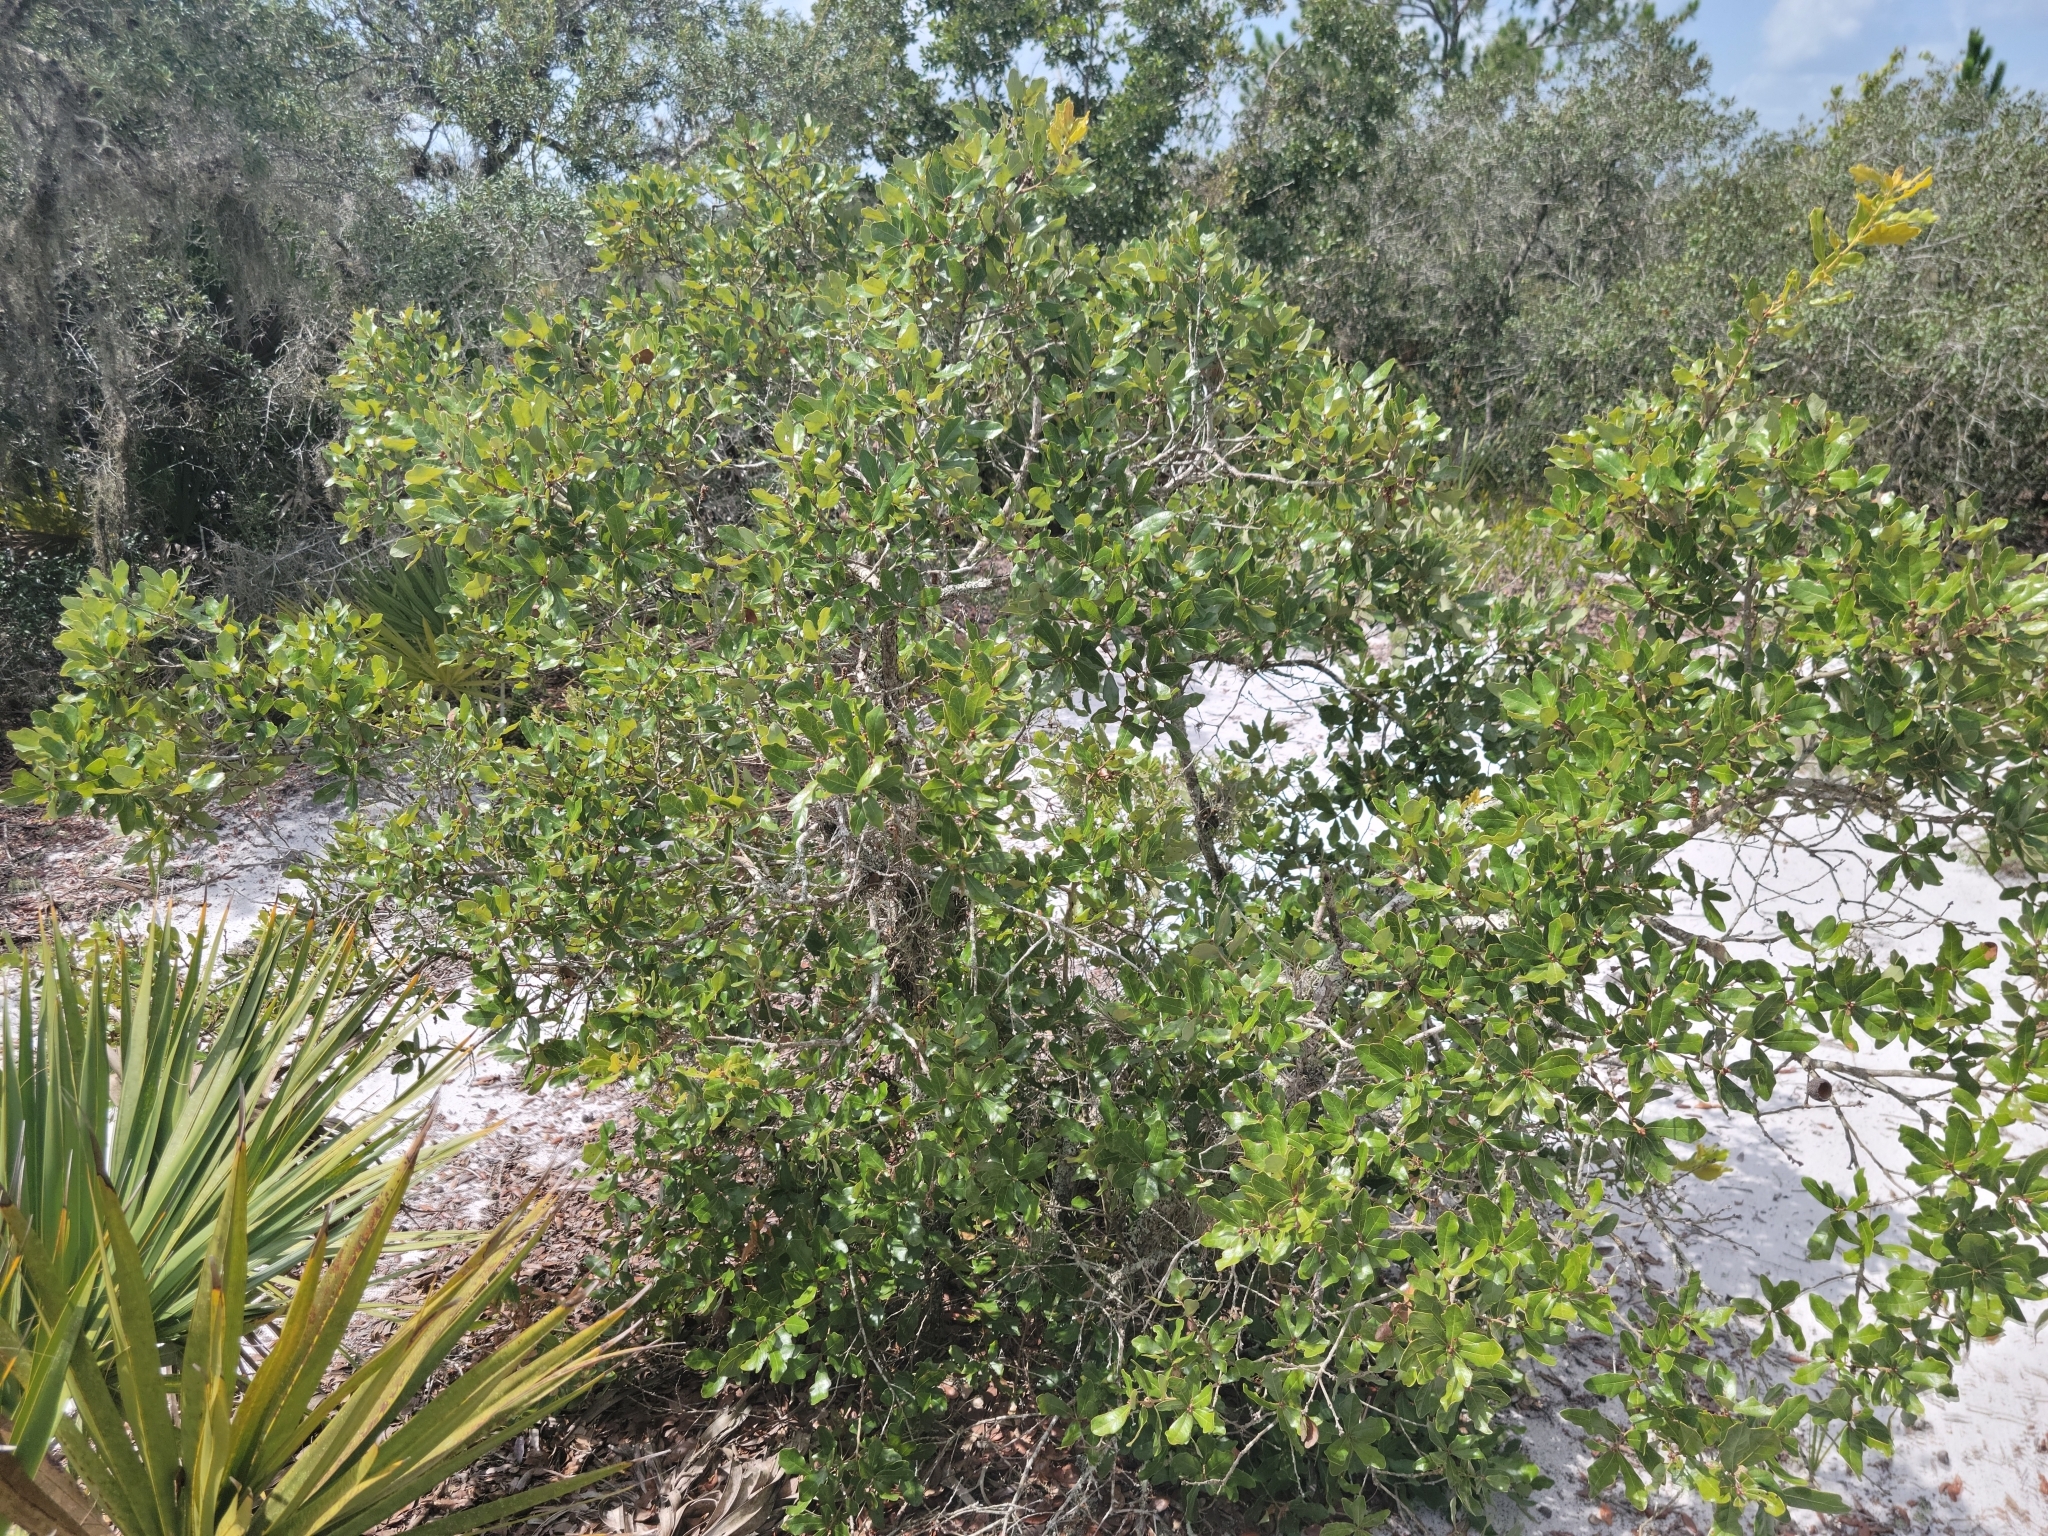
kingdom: Plantae
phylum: Tracheophyta
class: Magnoliopsida
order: Fagales
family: Fagaceae
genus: Quercus
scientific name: Quercus chapmanii
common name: Chapman oak
